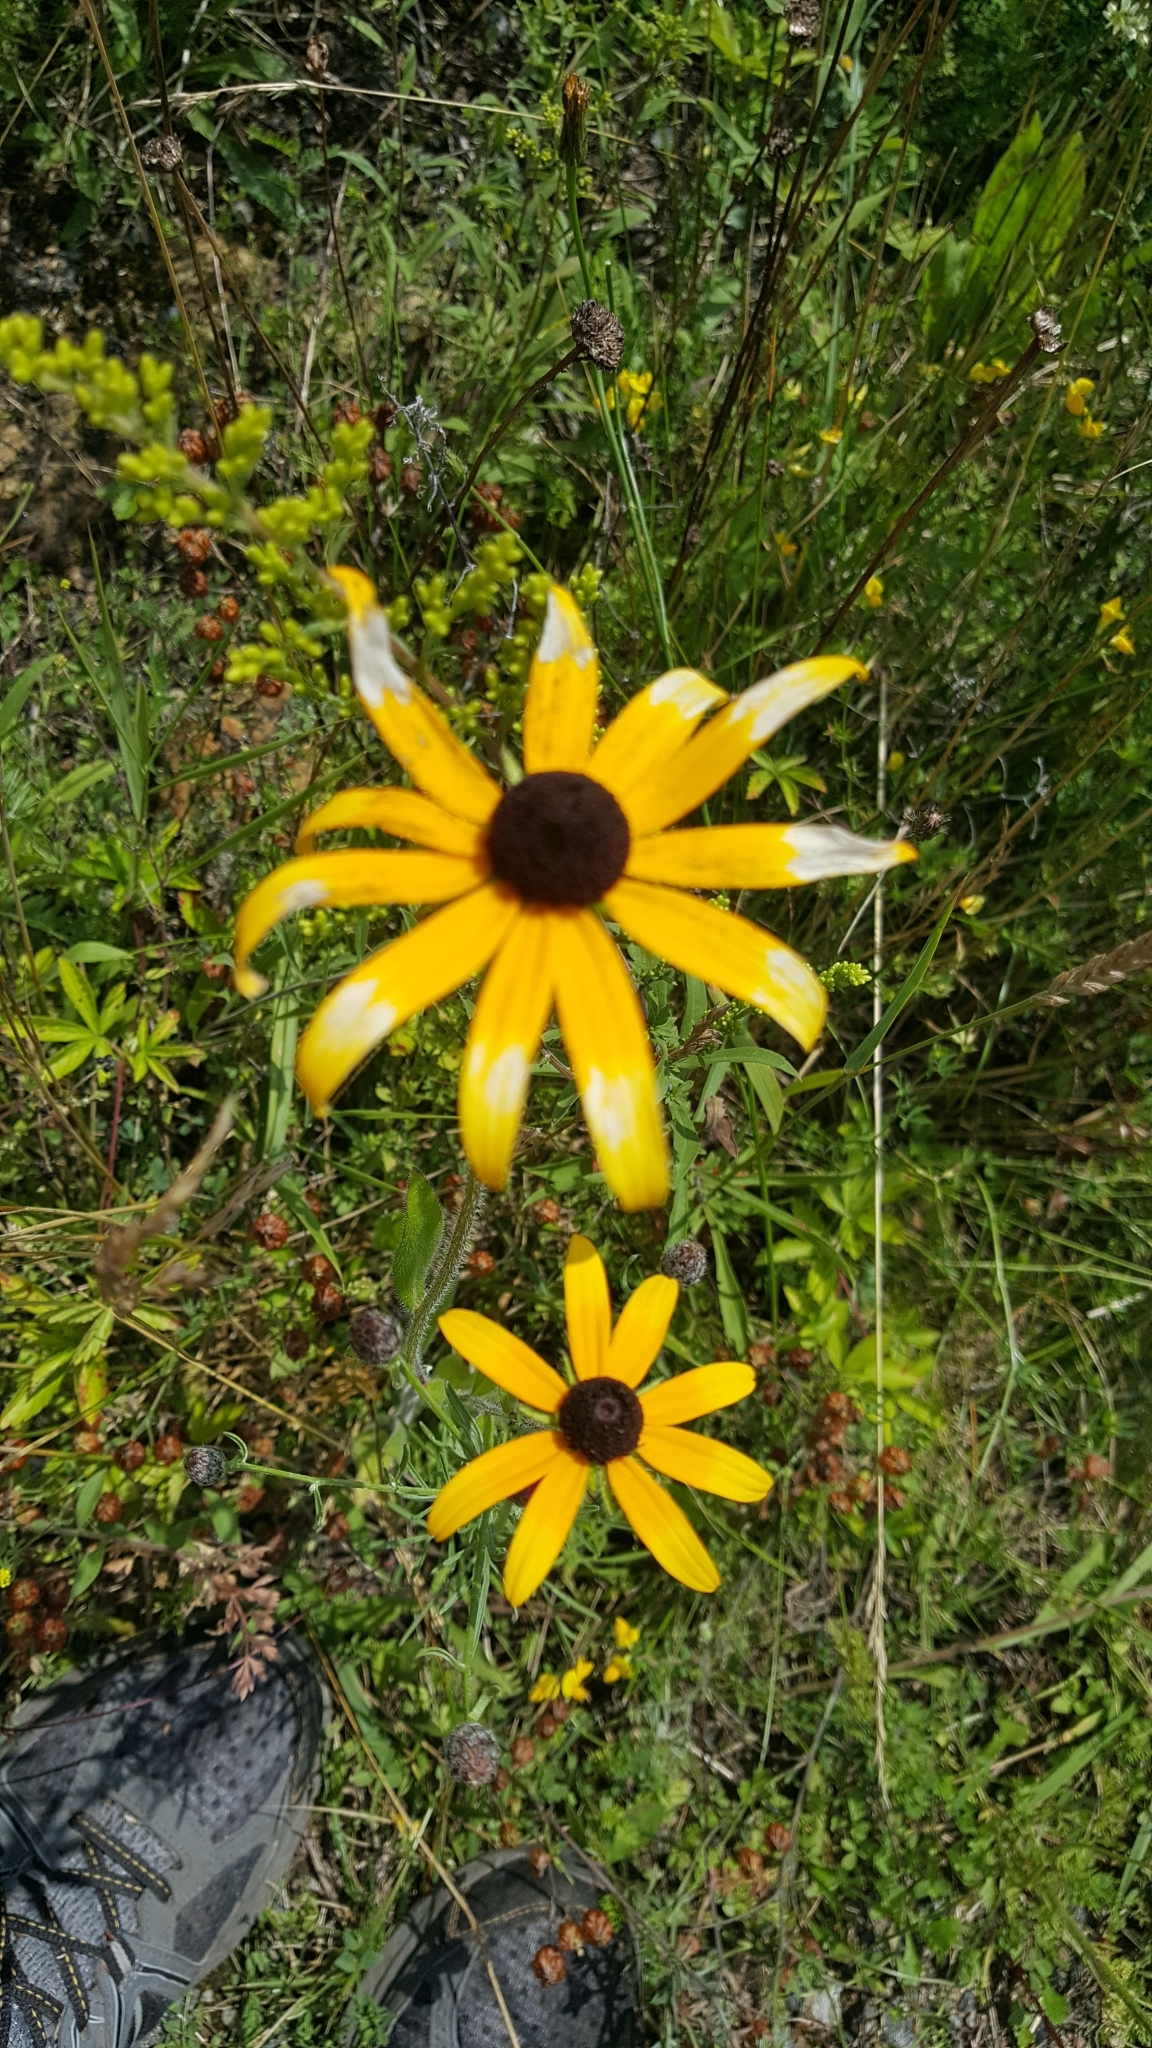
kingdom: Plantae
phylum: Tracheophyta
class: Magnoliopsida
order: Asterales
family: Asteraceae
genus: Rudbeckia
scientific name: Rudbeckia hirta
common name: Black-eyed-susan
